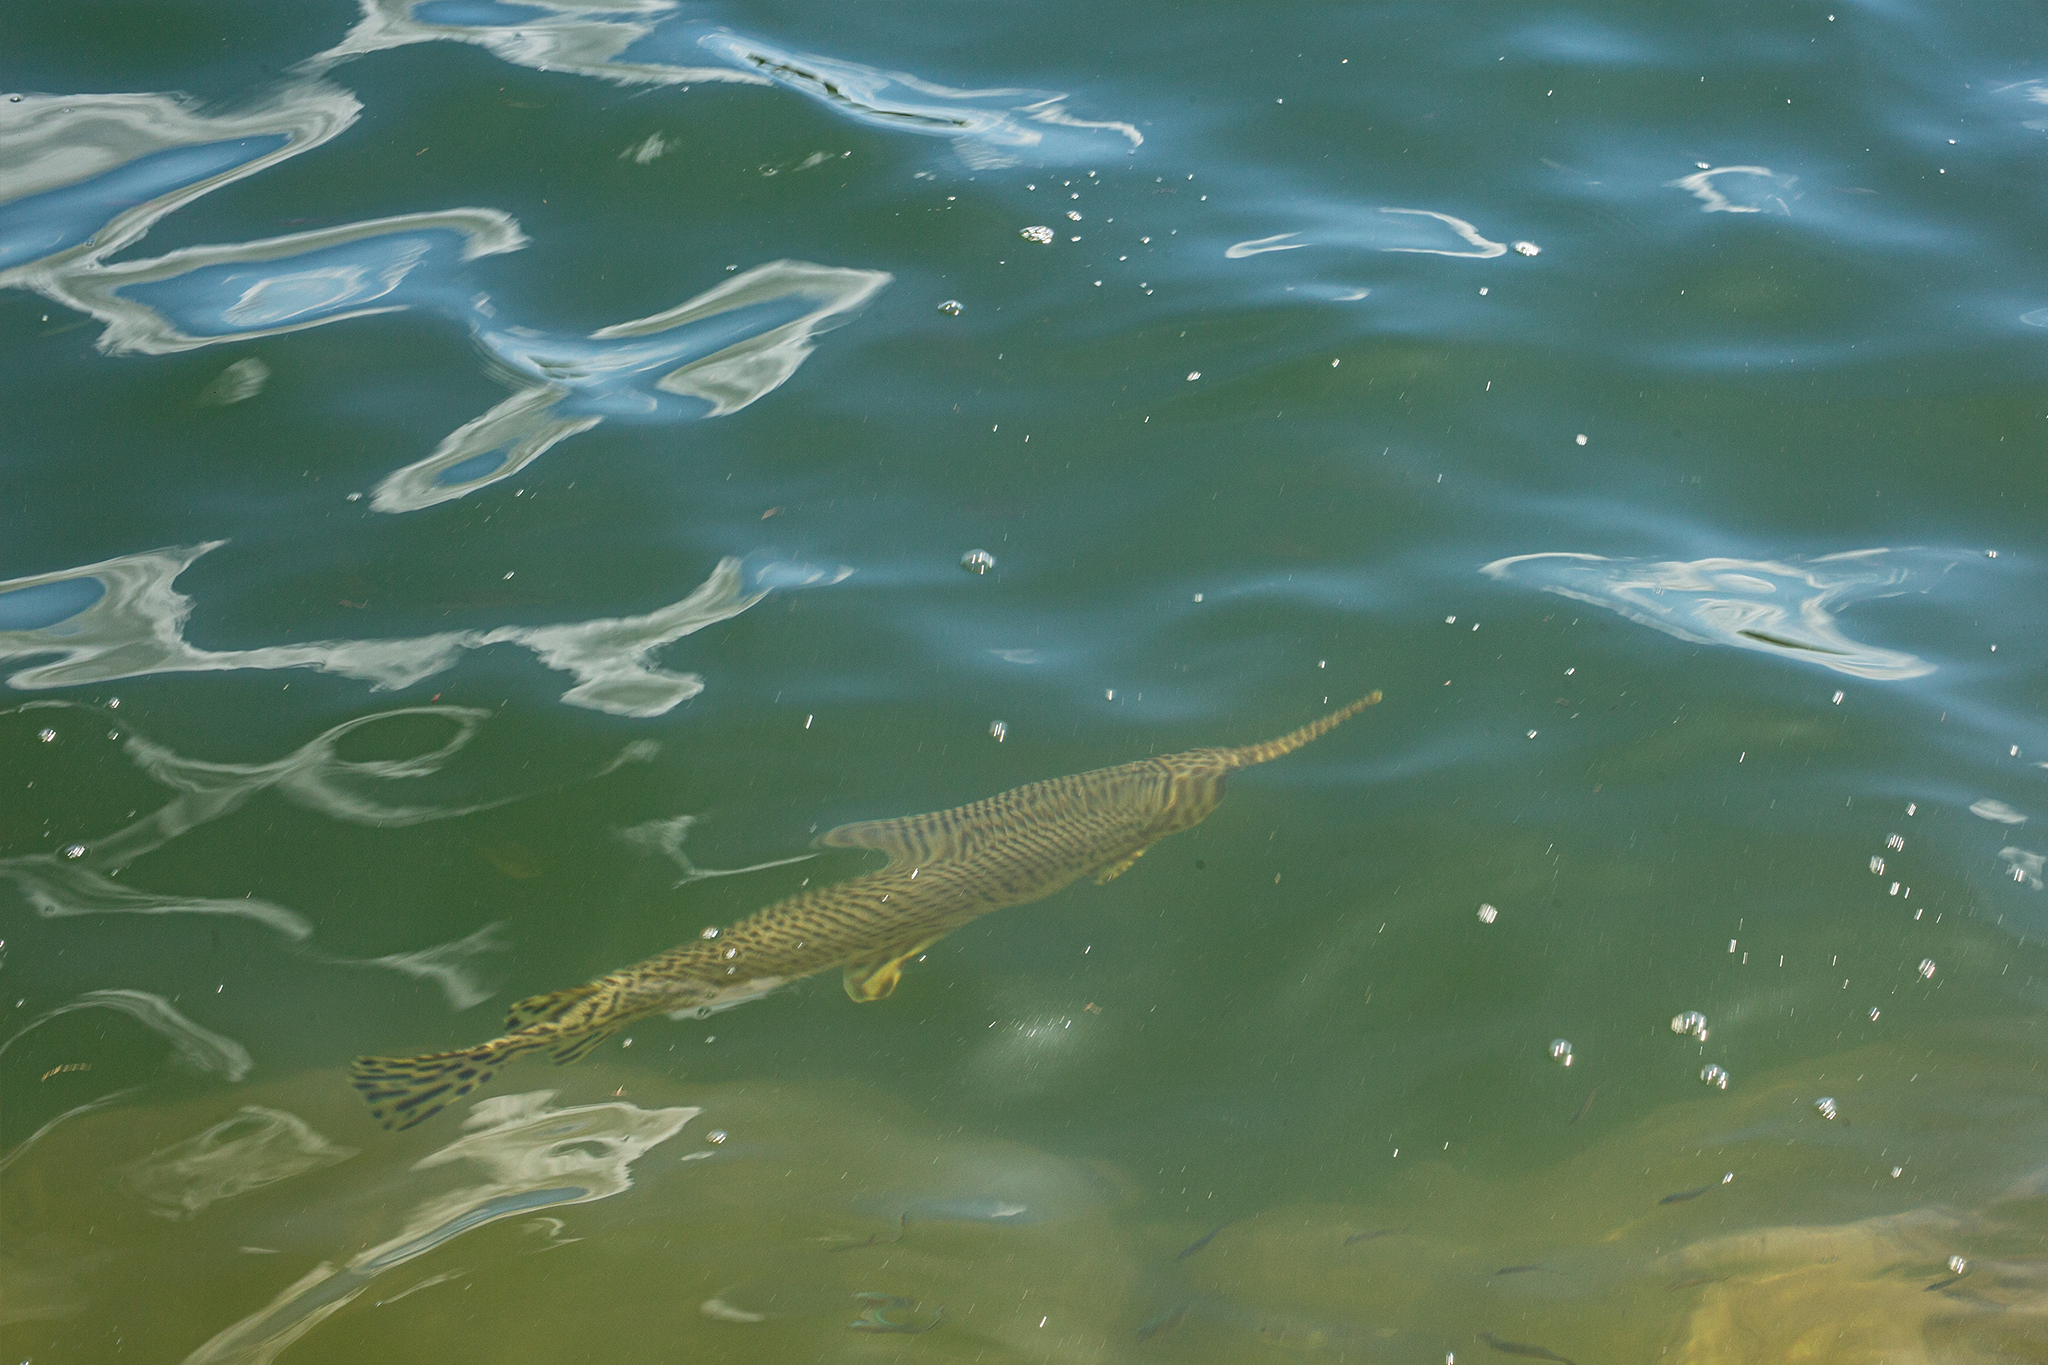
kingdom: Animalia
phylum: Chordata
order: Lepisosteiformes
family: Lepisosteidae
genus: Lepisosteus
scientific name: Lepisosteus oculatus
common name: Spotted gar
